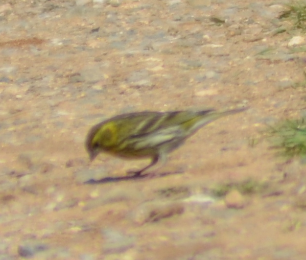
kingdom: Animalia
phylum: Chordata
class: Aves
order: Passeriformes
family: Fringillidae
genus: Serinus
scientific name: Serinus serinus
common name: European serin
